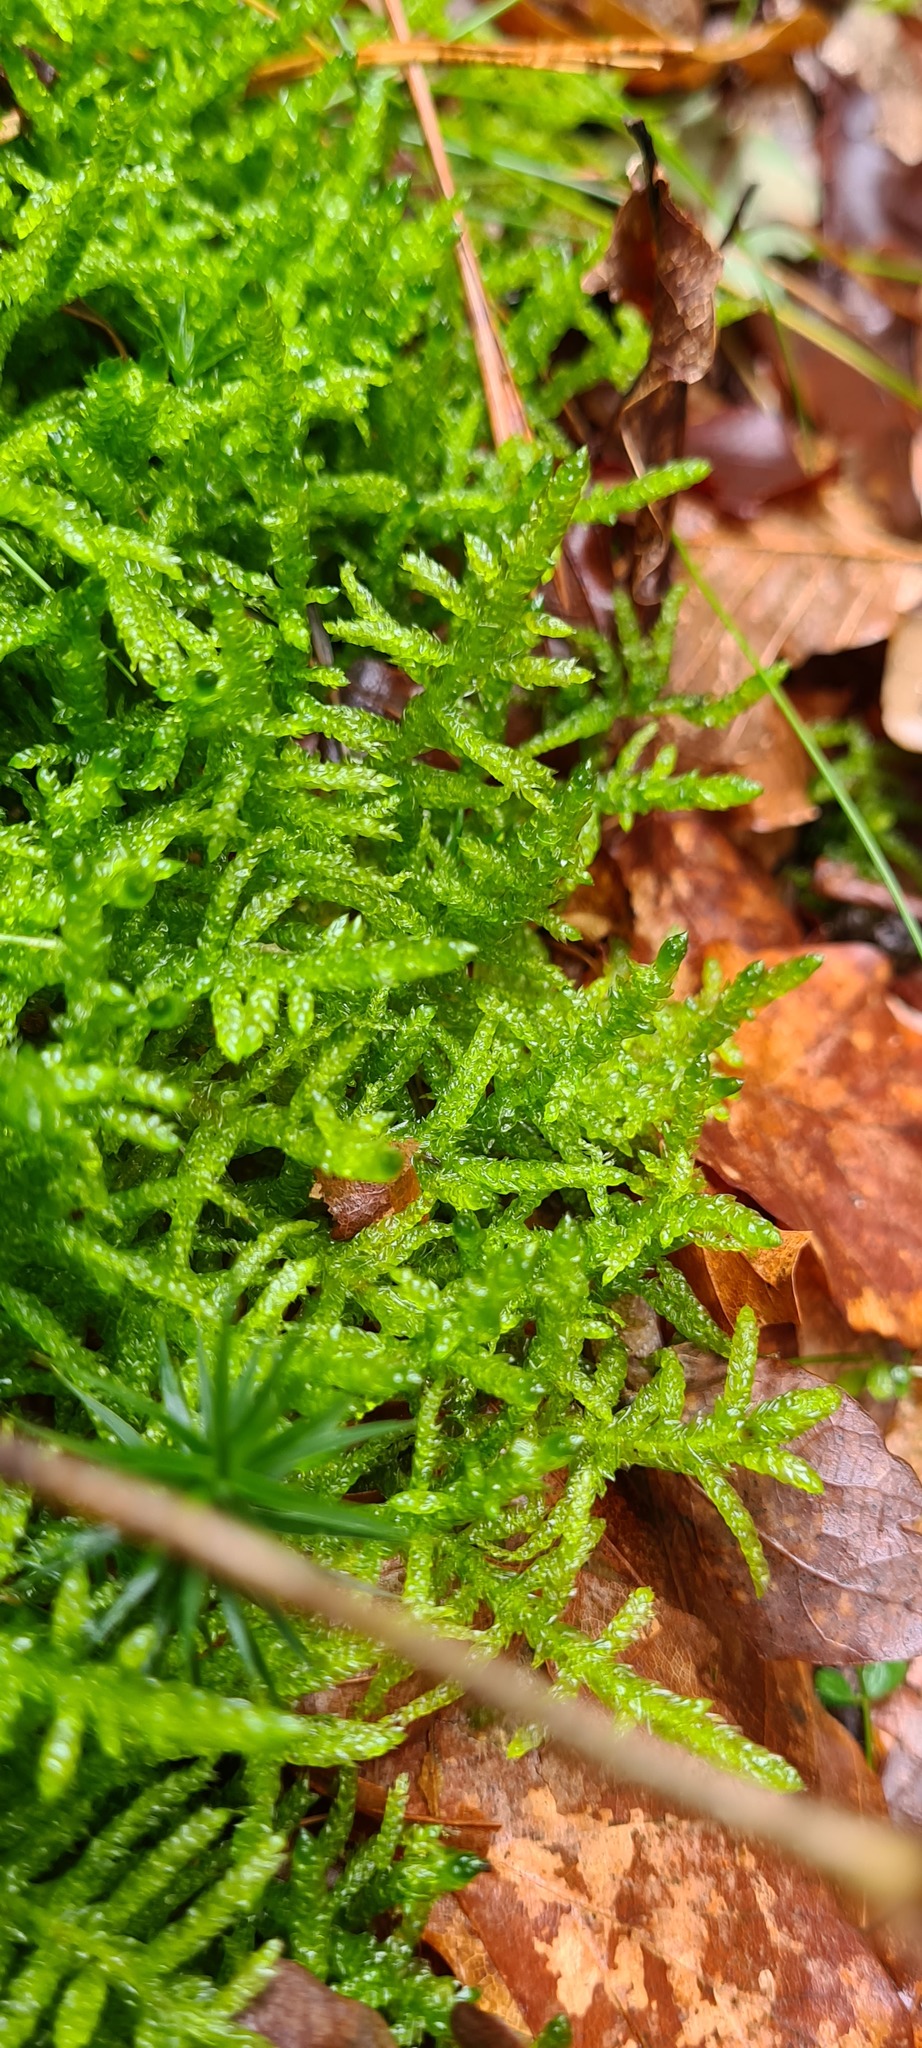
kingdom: Plantae
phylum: Bryophyta
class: Bryopsida
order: Hypnales
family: Brachytheciaceae
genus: Pseudoscleropodium
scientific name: Pseudoscleropodium purum
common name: Neat feather-moss
